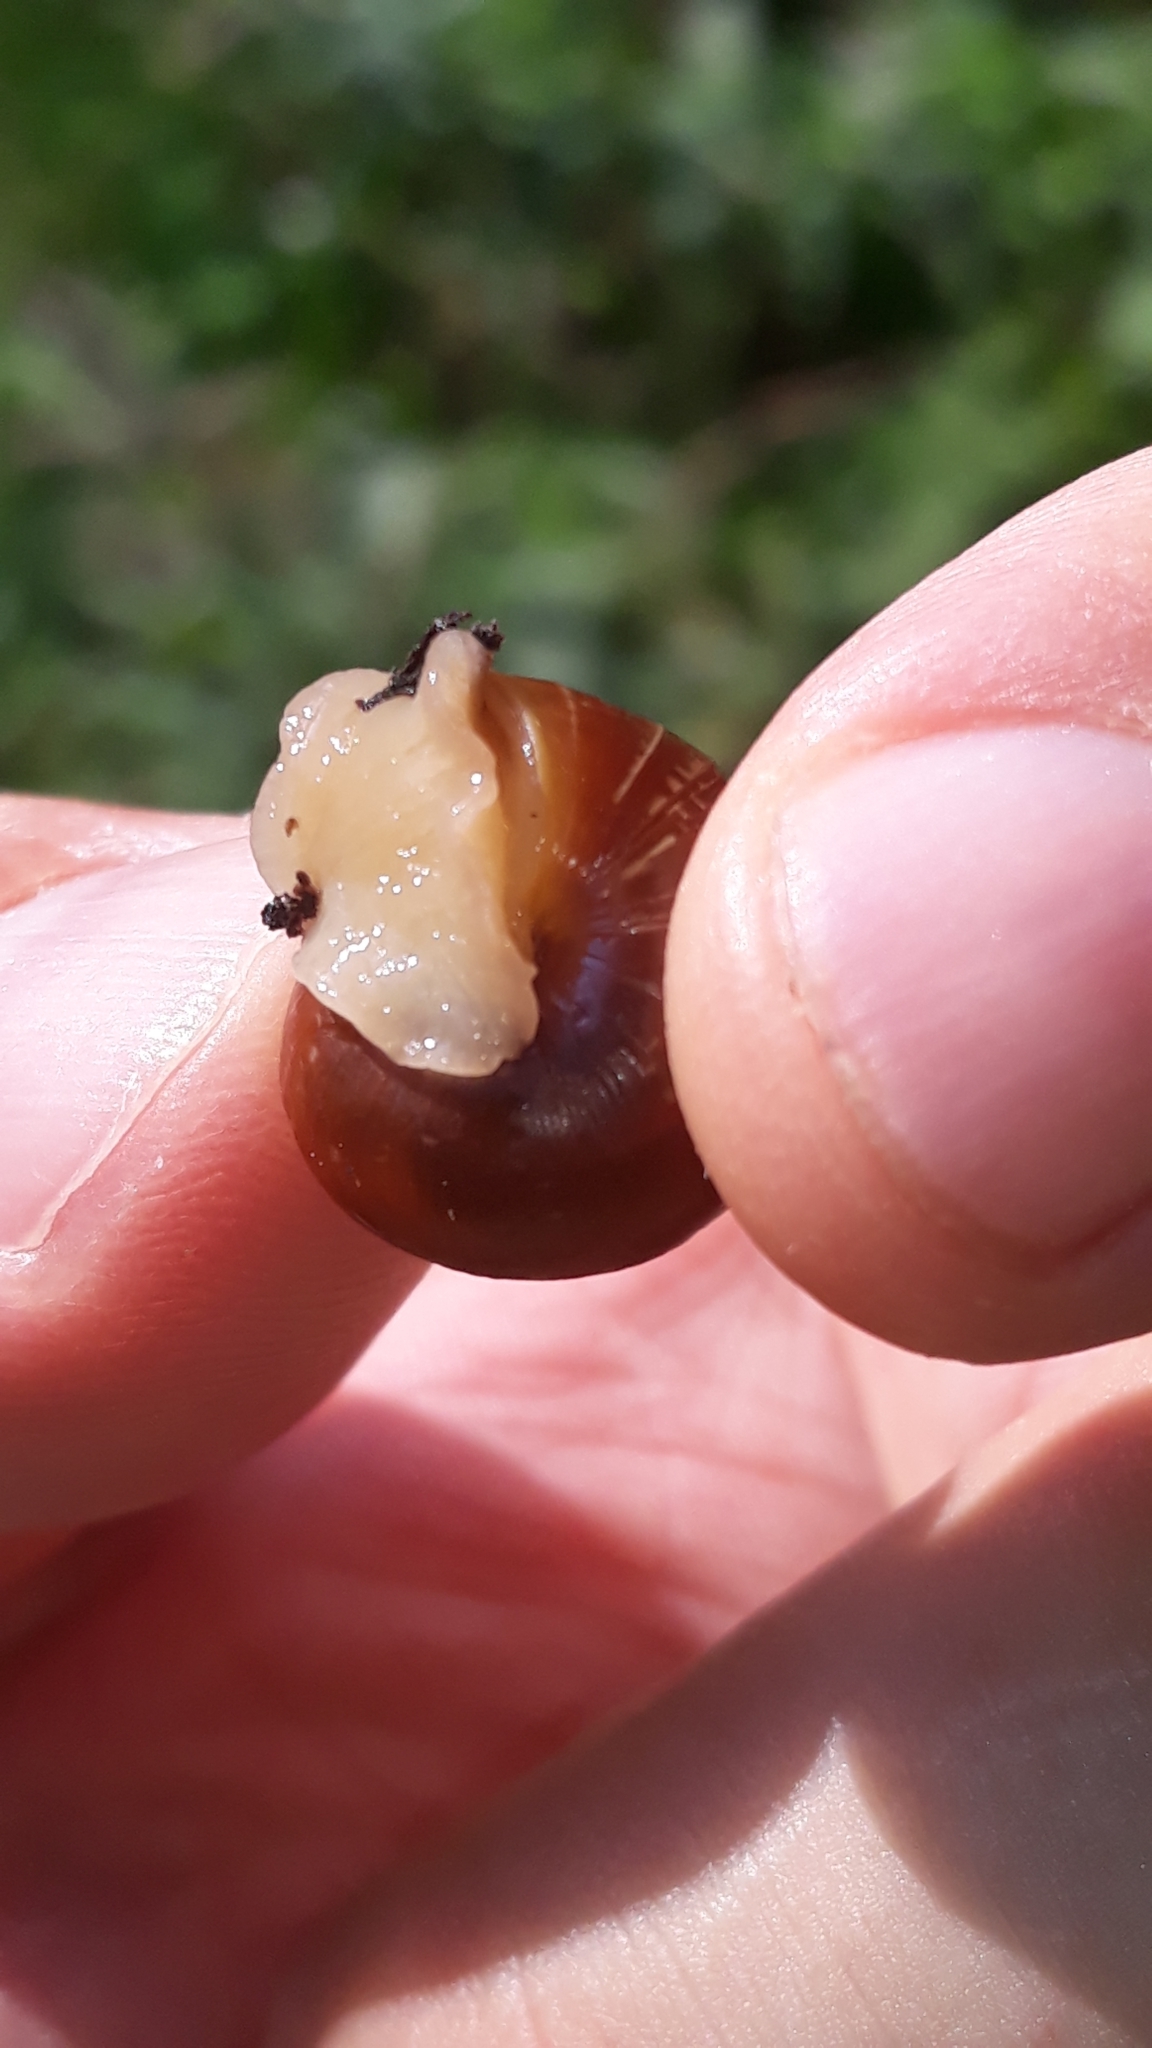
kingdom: Animalia
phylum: Mollusca
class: Gastropoda
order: Stylommatophora
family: Helicidae
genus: Arianta
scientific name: Arianta arbustorum
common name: Copse snail
